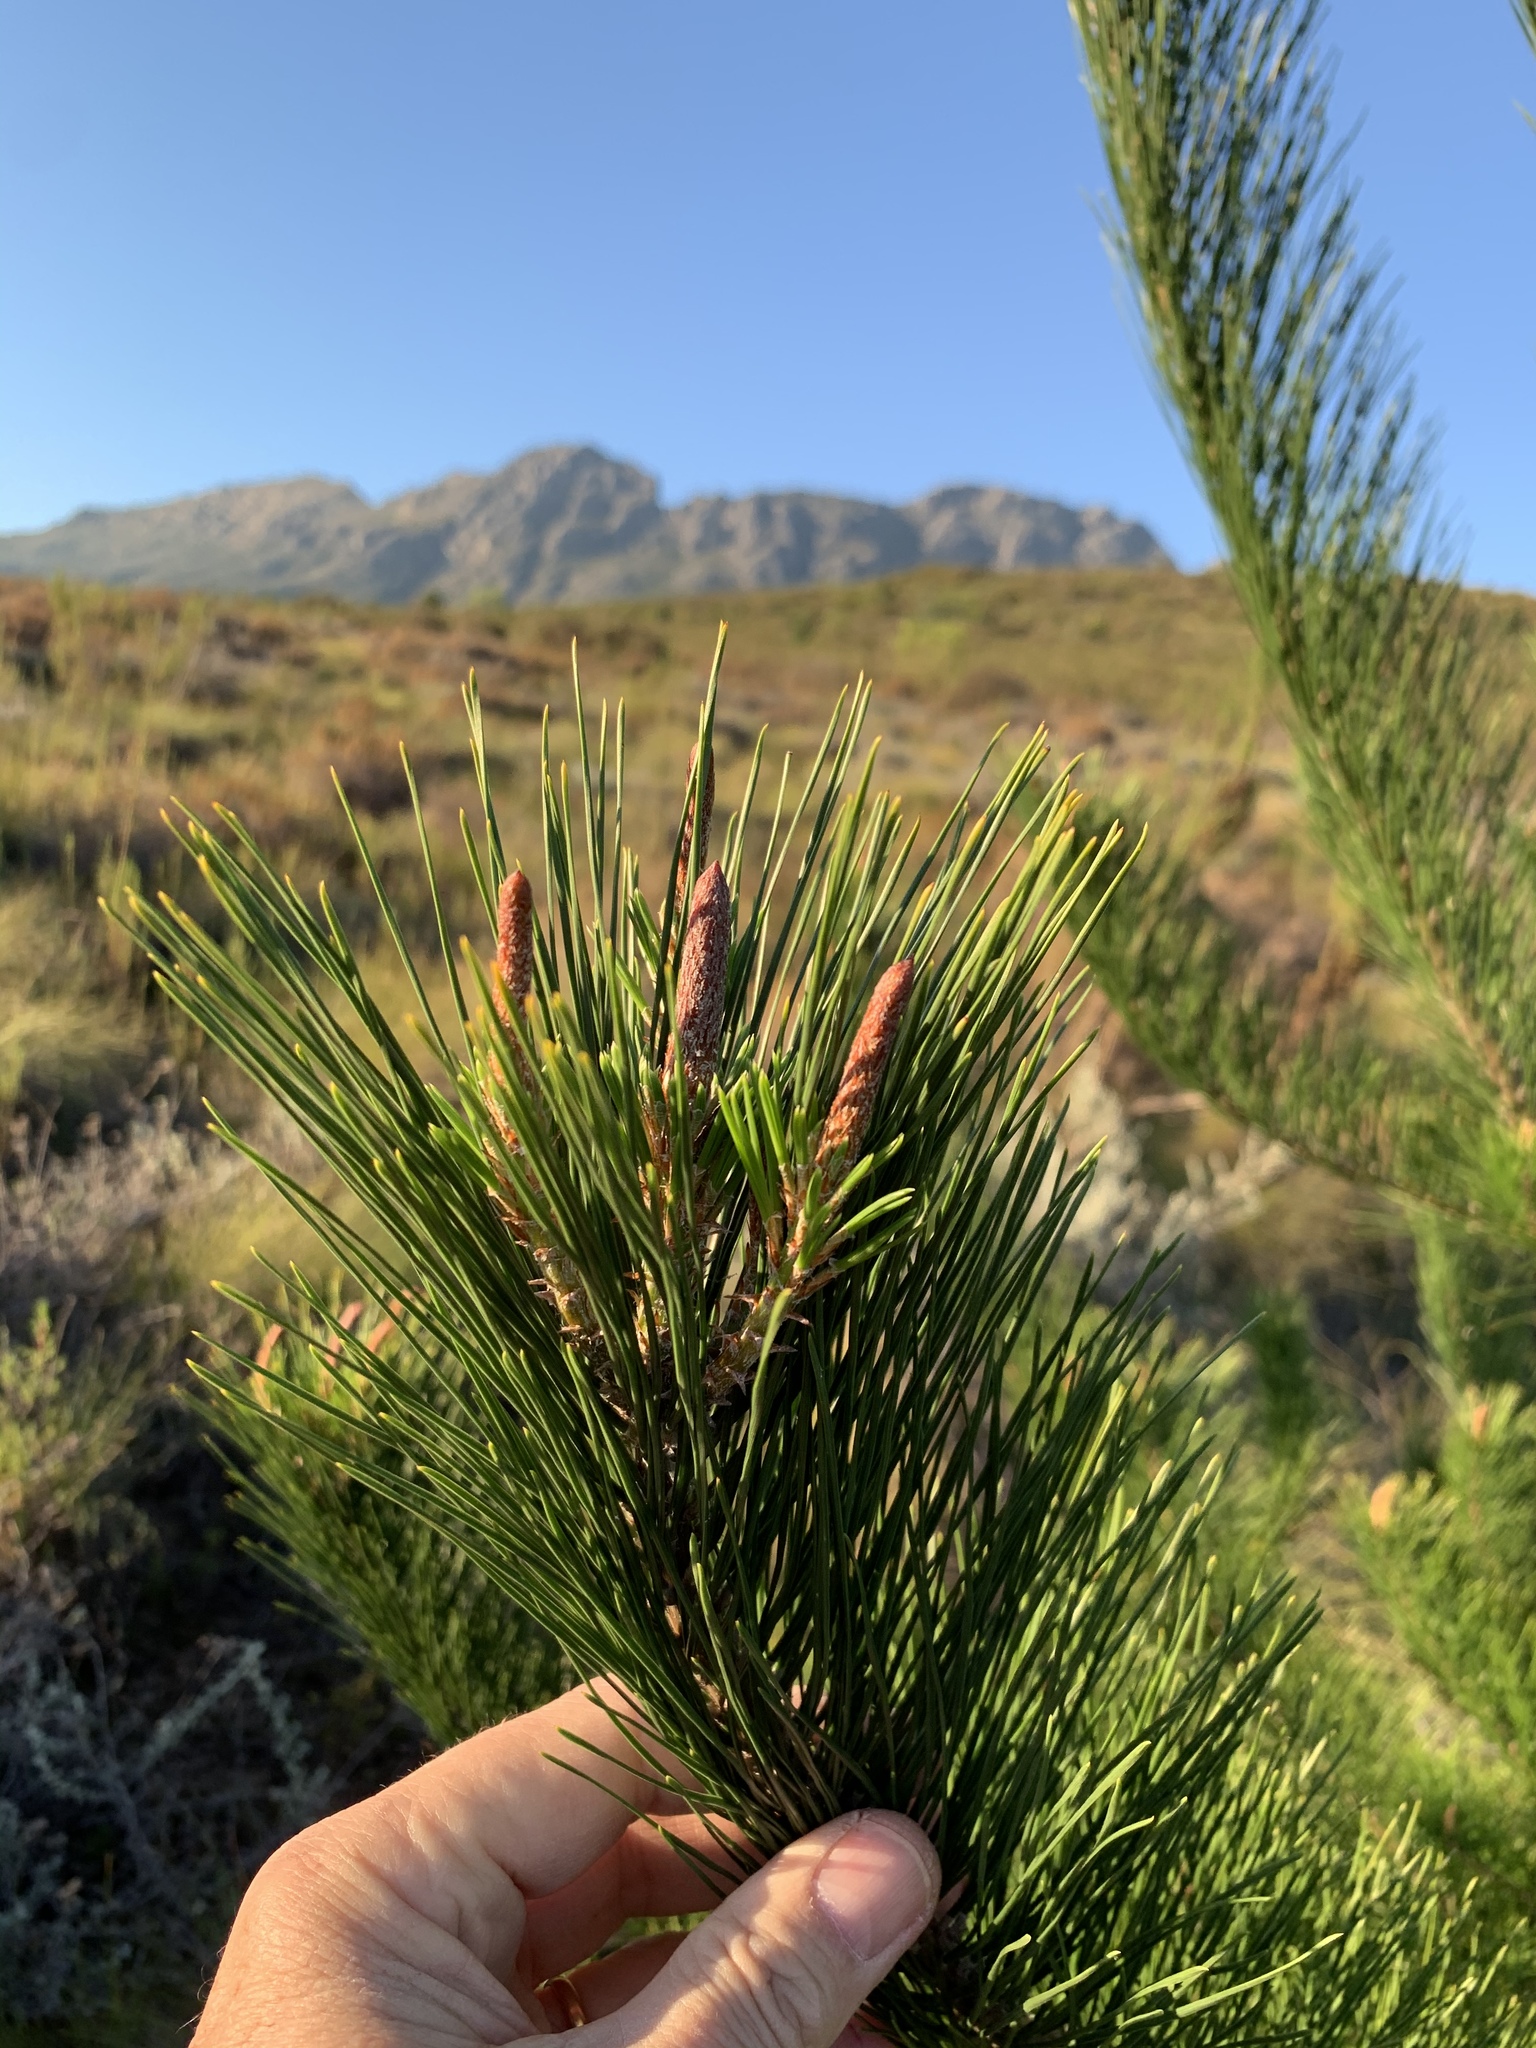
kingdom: Plantae
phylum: Tracheophyta
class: Pinopsida
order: Pinales
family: Pinaceae
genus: Pinus
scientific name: Pinus radiata
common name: Monterey pine
